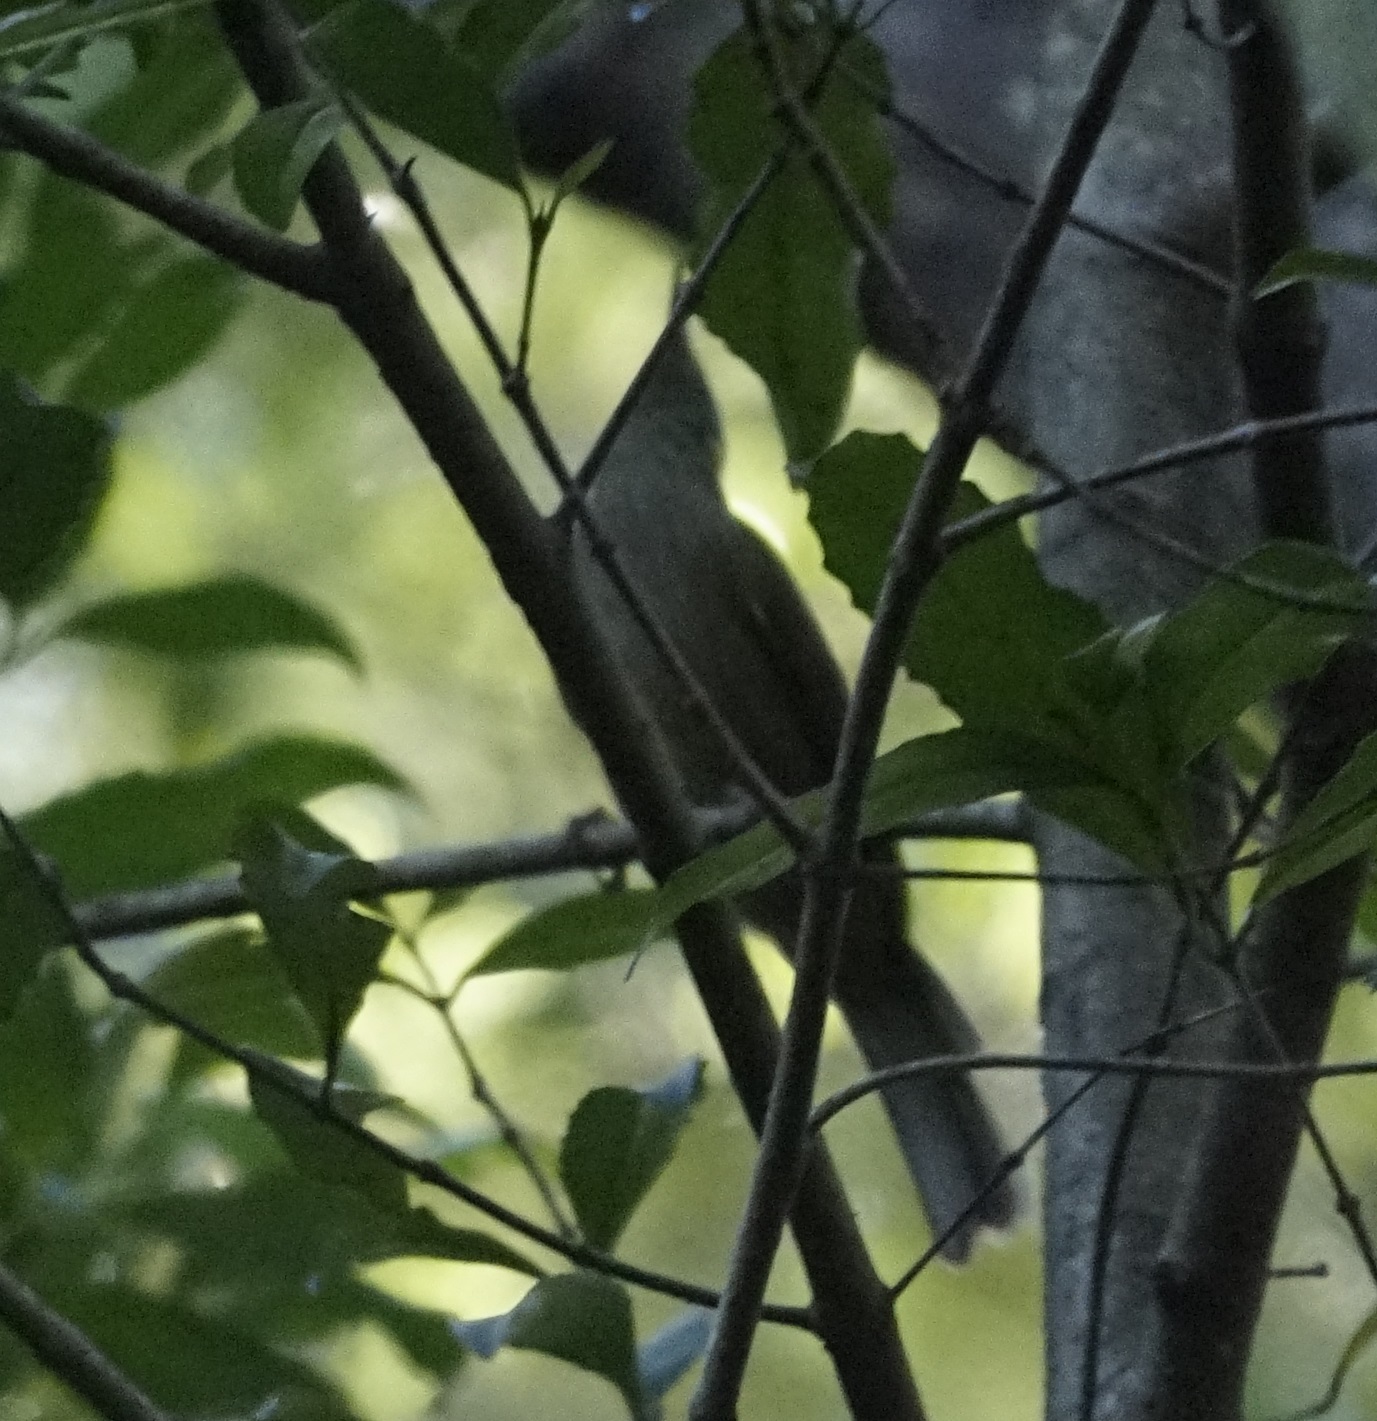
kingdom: Animalia
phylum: Chordata
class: Aves
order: Passeriformes
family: Meliphagidae
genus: Meliphaga
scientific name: Meliphaga lewinii
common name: Lewin's honeyeater
